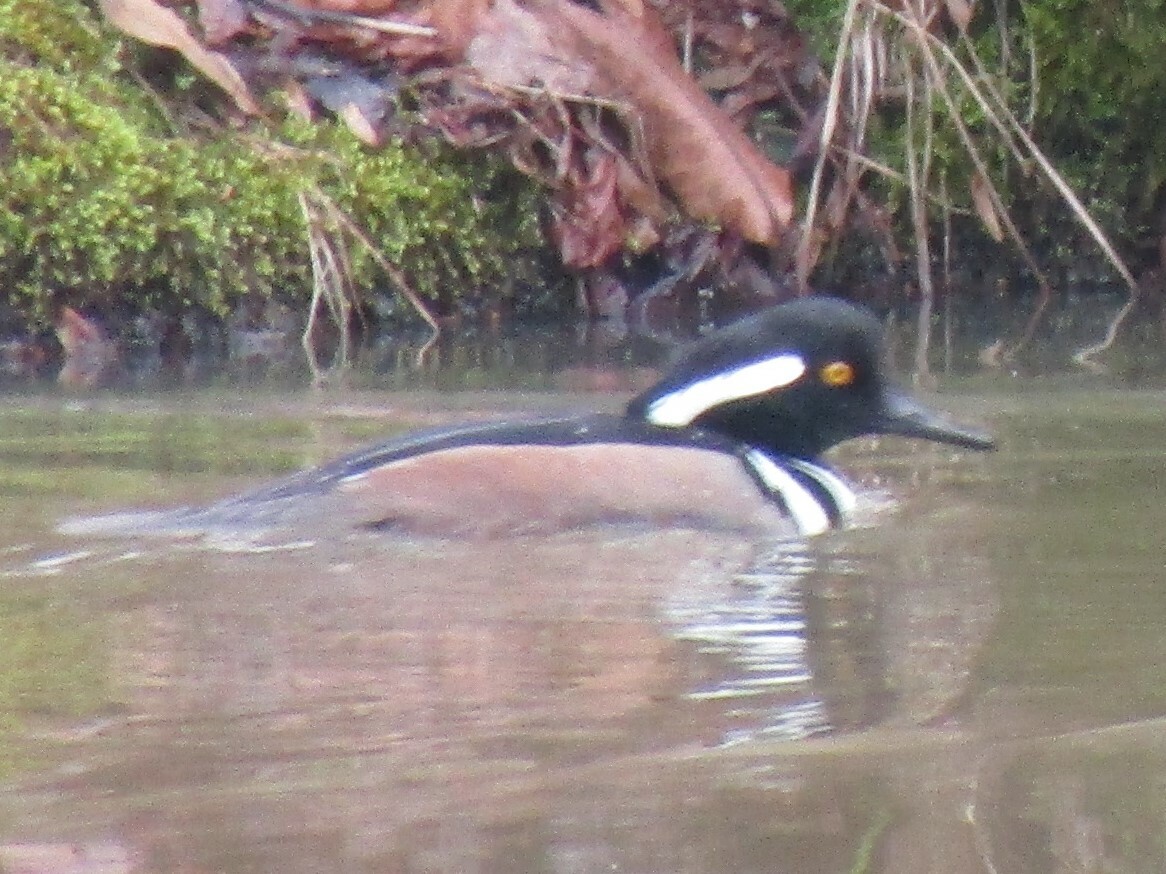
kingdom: Animalia
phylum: Chordata
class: Aves
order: Anseriformes
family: Anatidae
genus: Lophodytes
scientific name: Lophodytes cucullatus
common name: Hooded merganser
